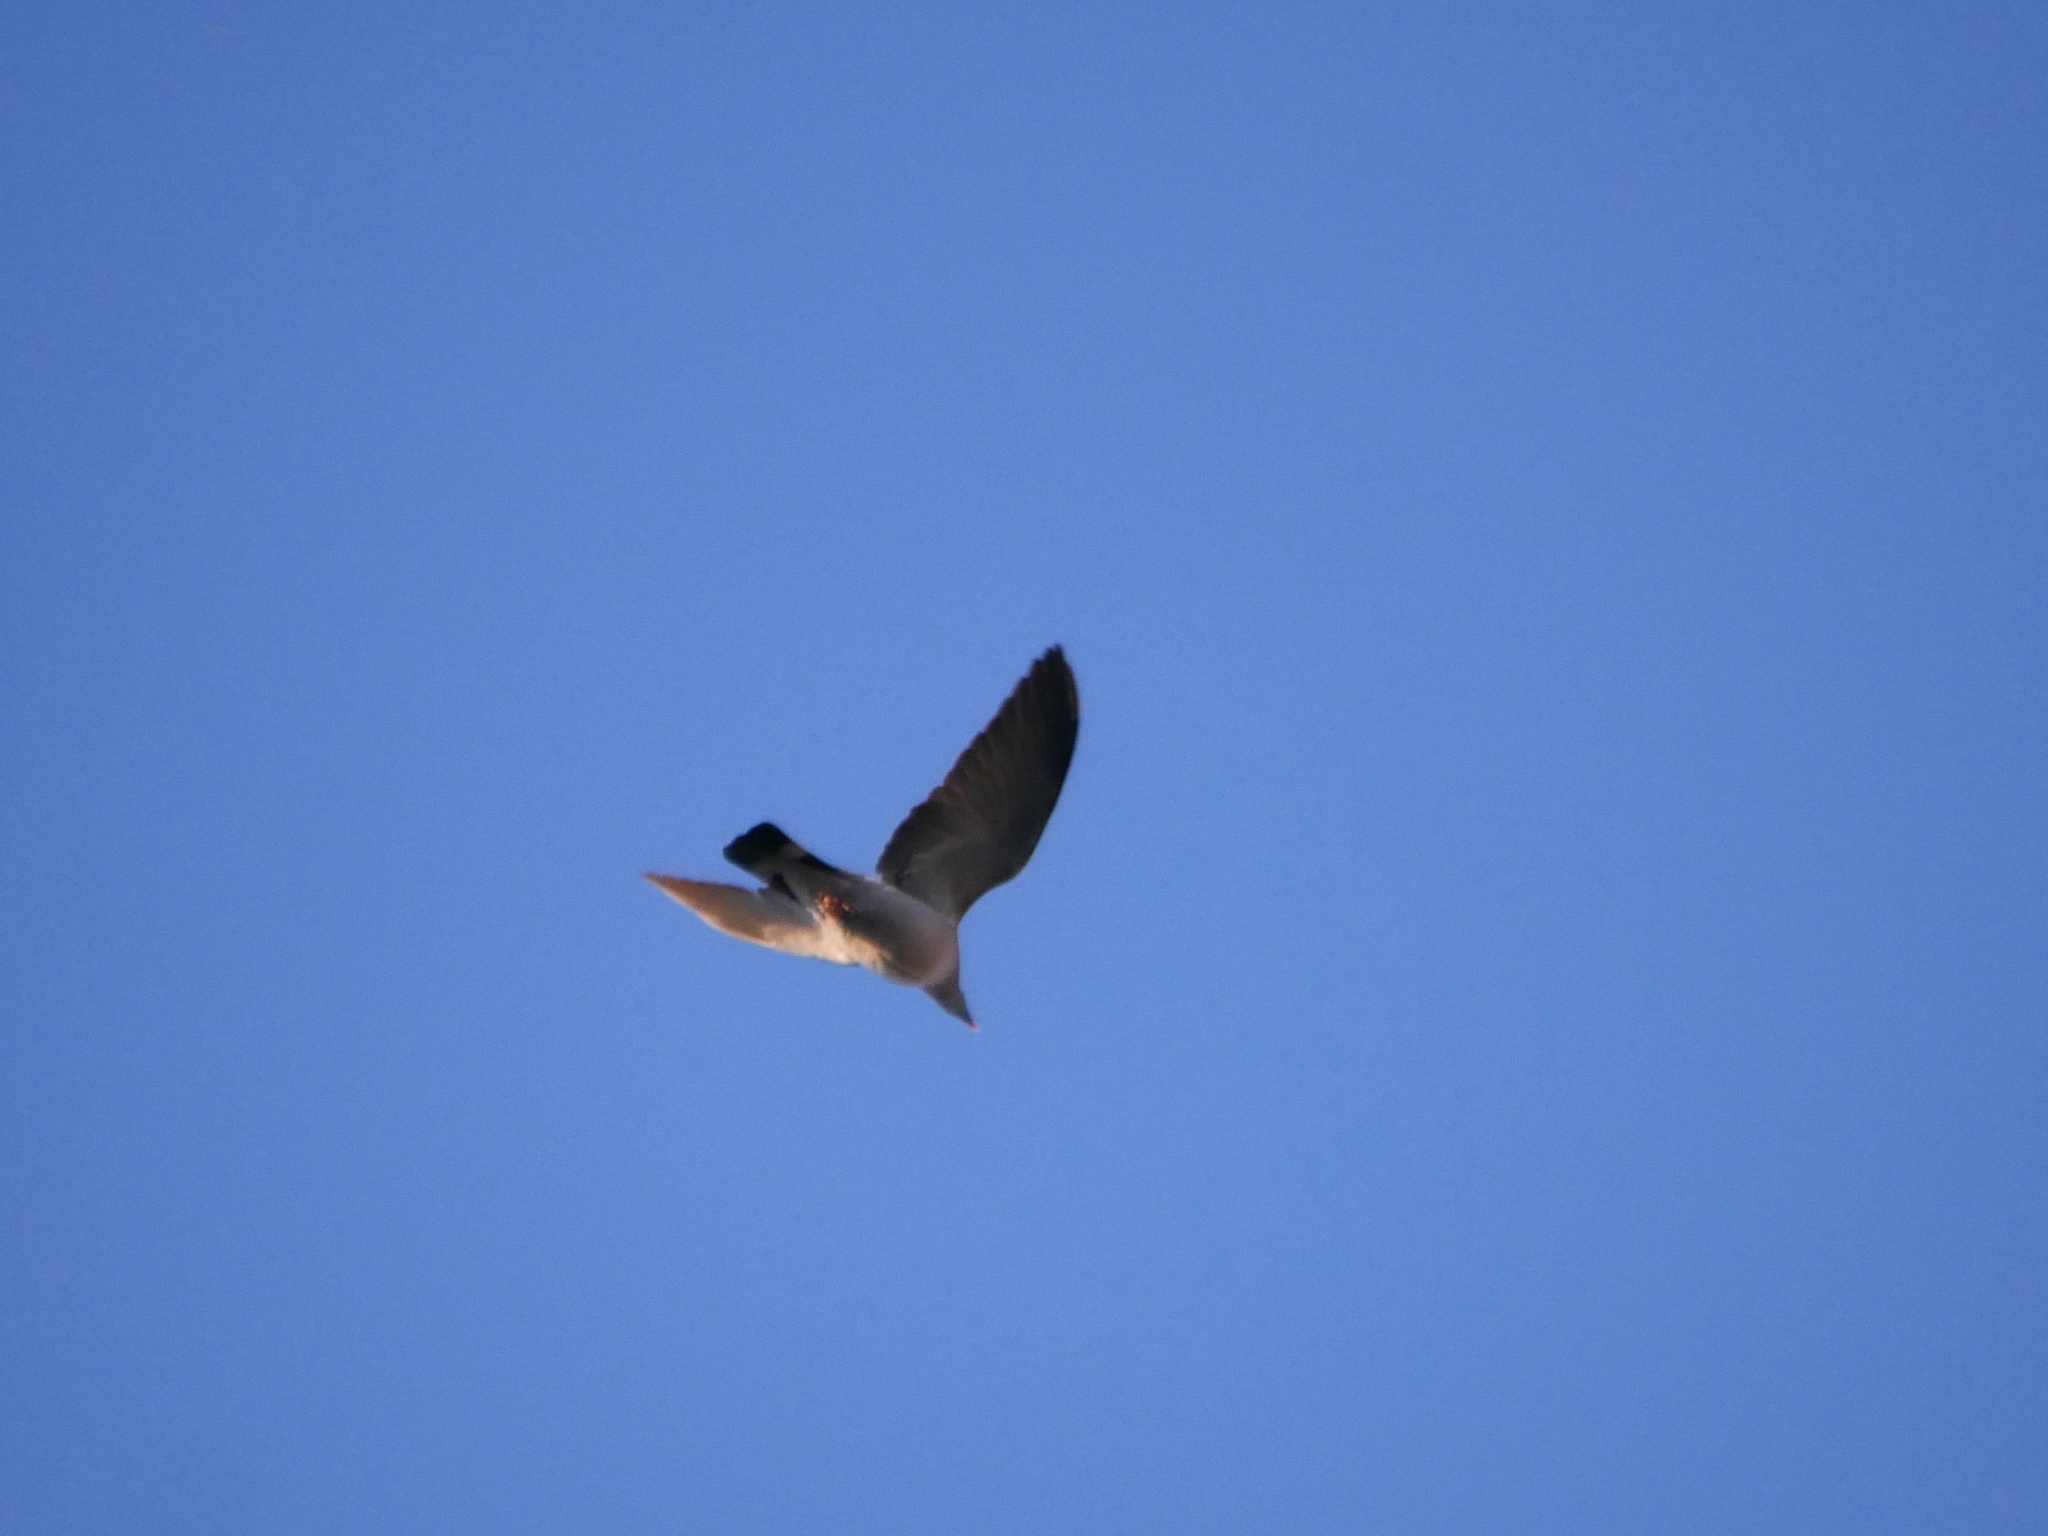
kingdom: Animalia
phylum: Chordata
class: Aves
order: Columbiformes
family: Columbidae
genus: Columba
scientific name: Columba palumbus
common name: Common wood pigeon
